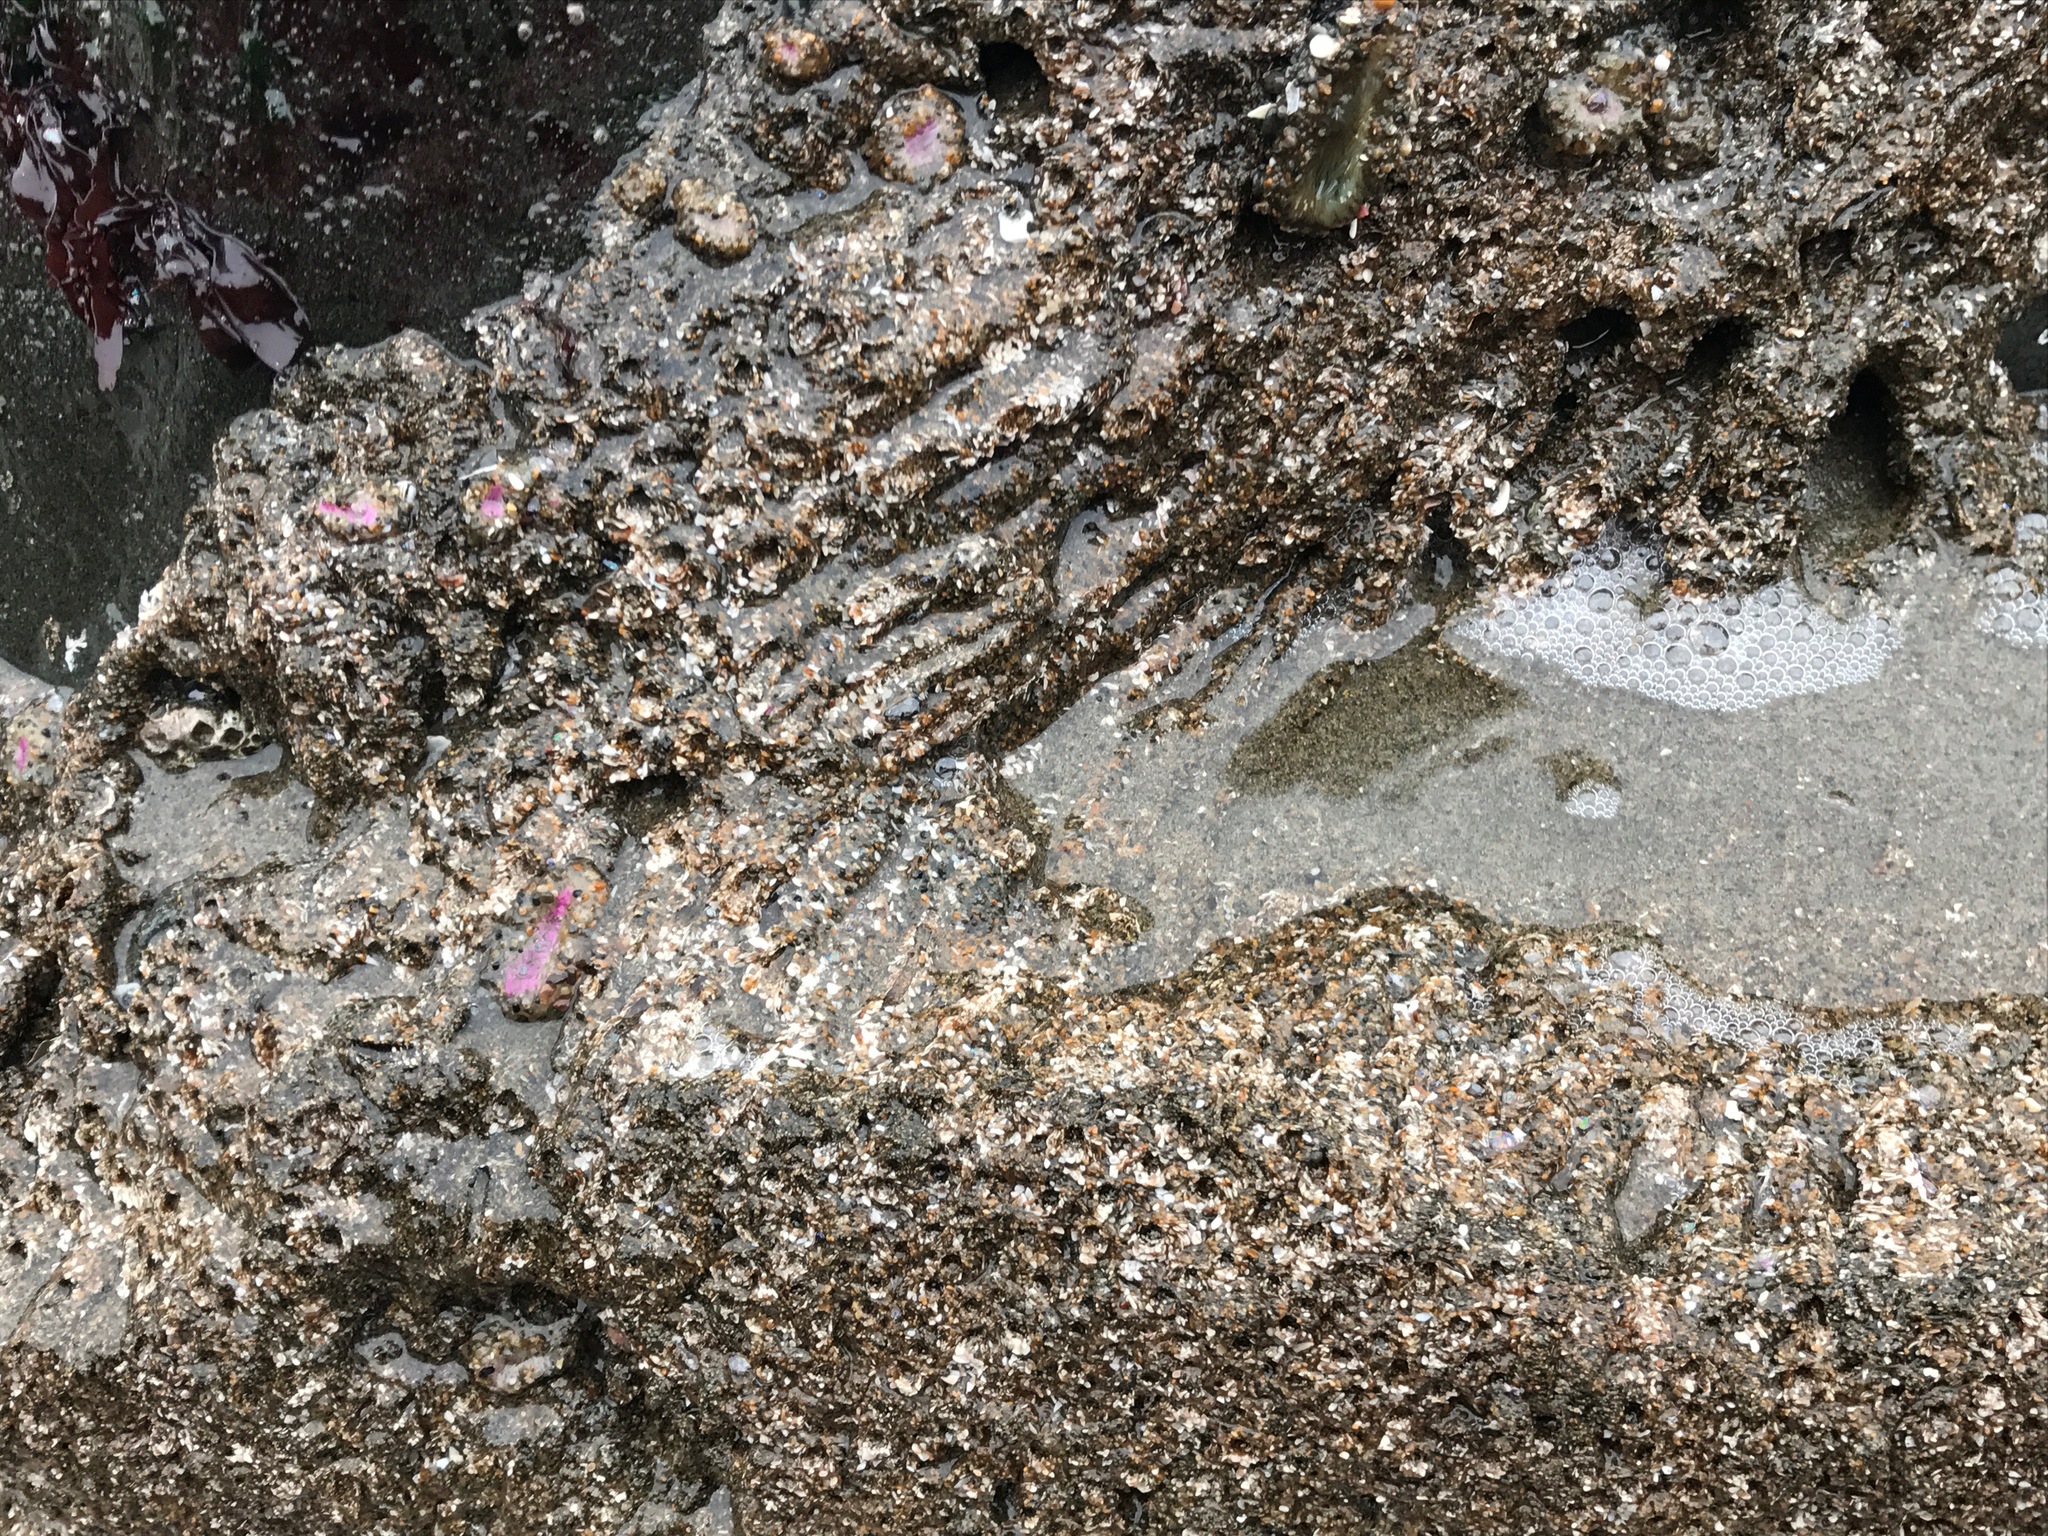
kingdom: Animalia
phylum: Annelida
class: Polychaeta
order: Sabellida
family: Sabellariidae
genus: Phragmatopoma
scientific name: Phragmatopoma californica
